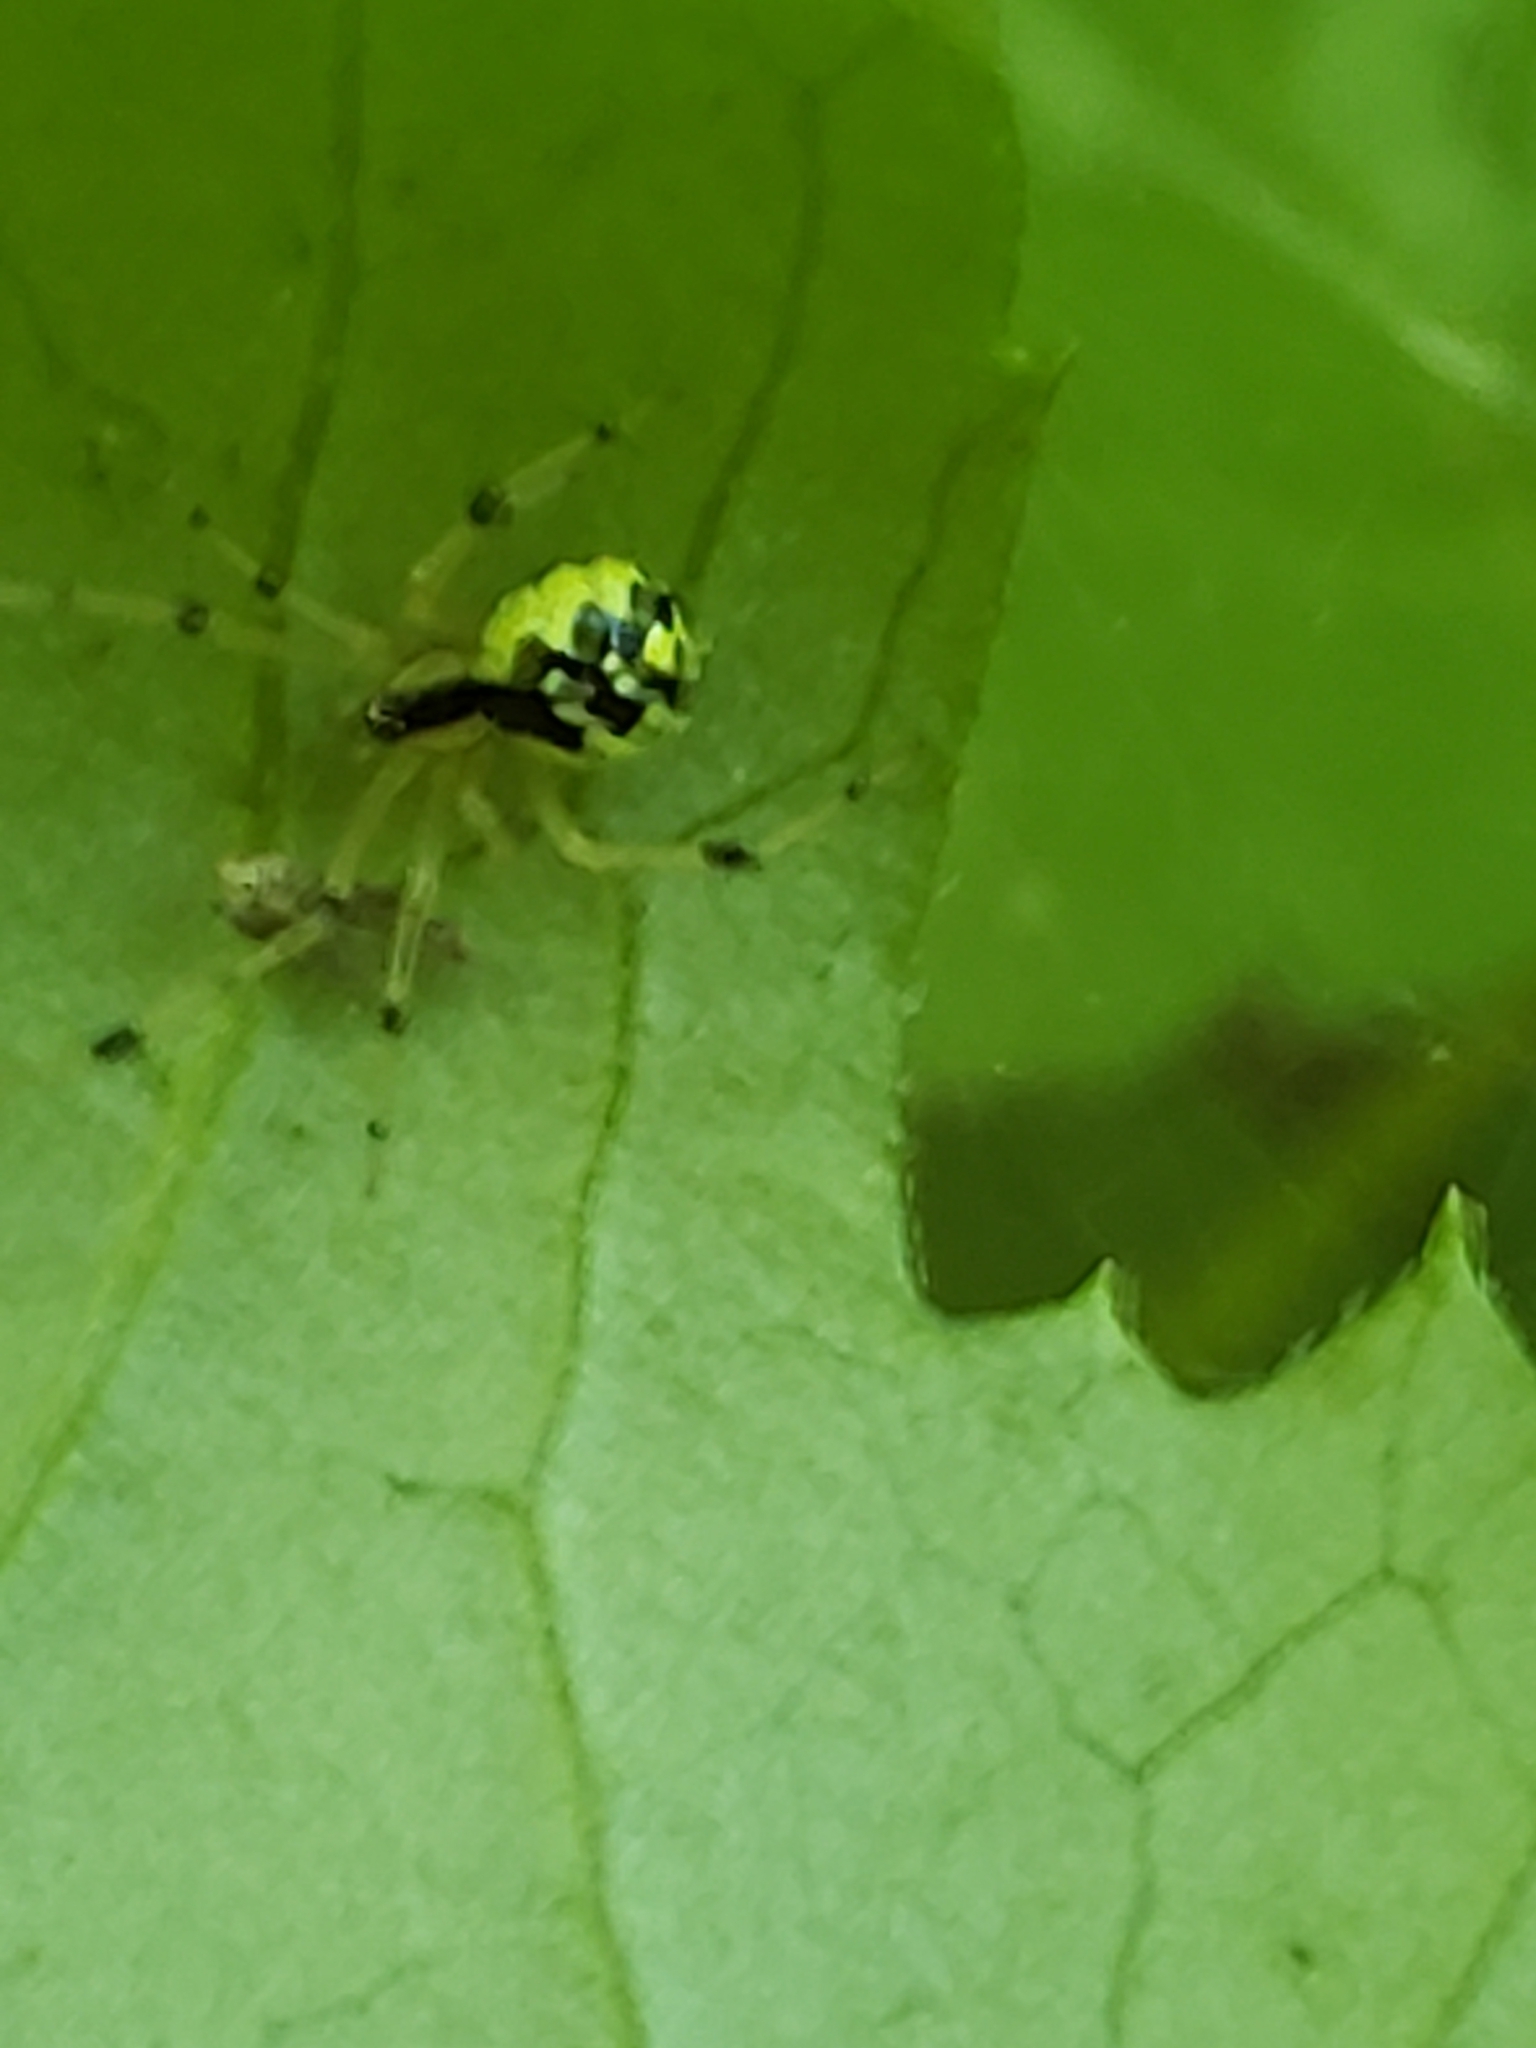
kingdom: Animalia
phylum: Arthropoda
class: Arachnida
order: Araneae
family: Theridiidae
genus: Phylloneta
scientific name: Phylloneta pictipes
